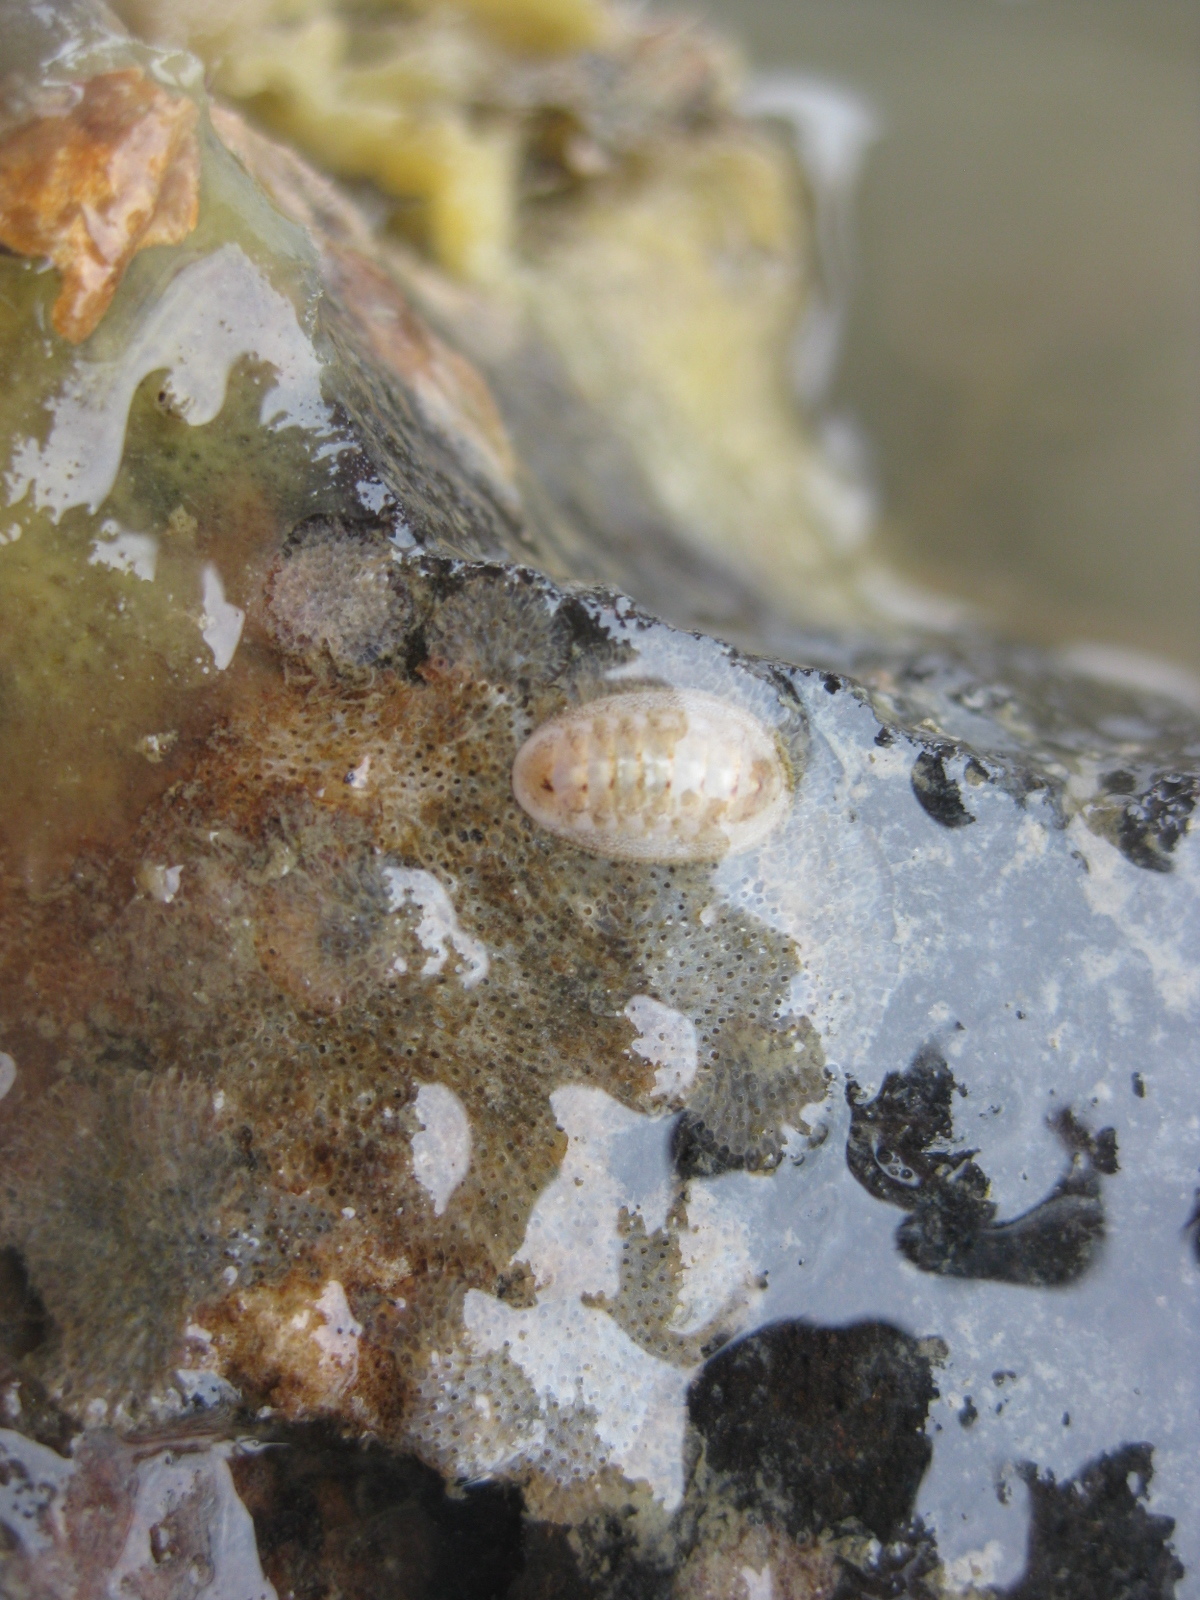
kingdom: Animalia
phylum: Mollusca
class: Polyplacophora
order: Lepidopleurida
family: Leptochitonidae
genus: Leptochiton
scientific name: Leptochiton inquinatus
